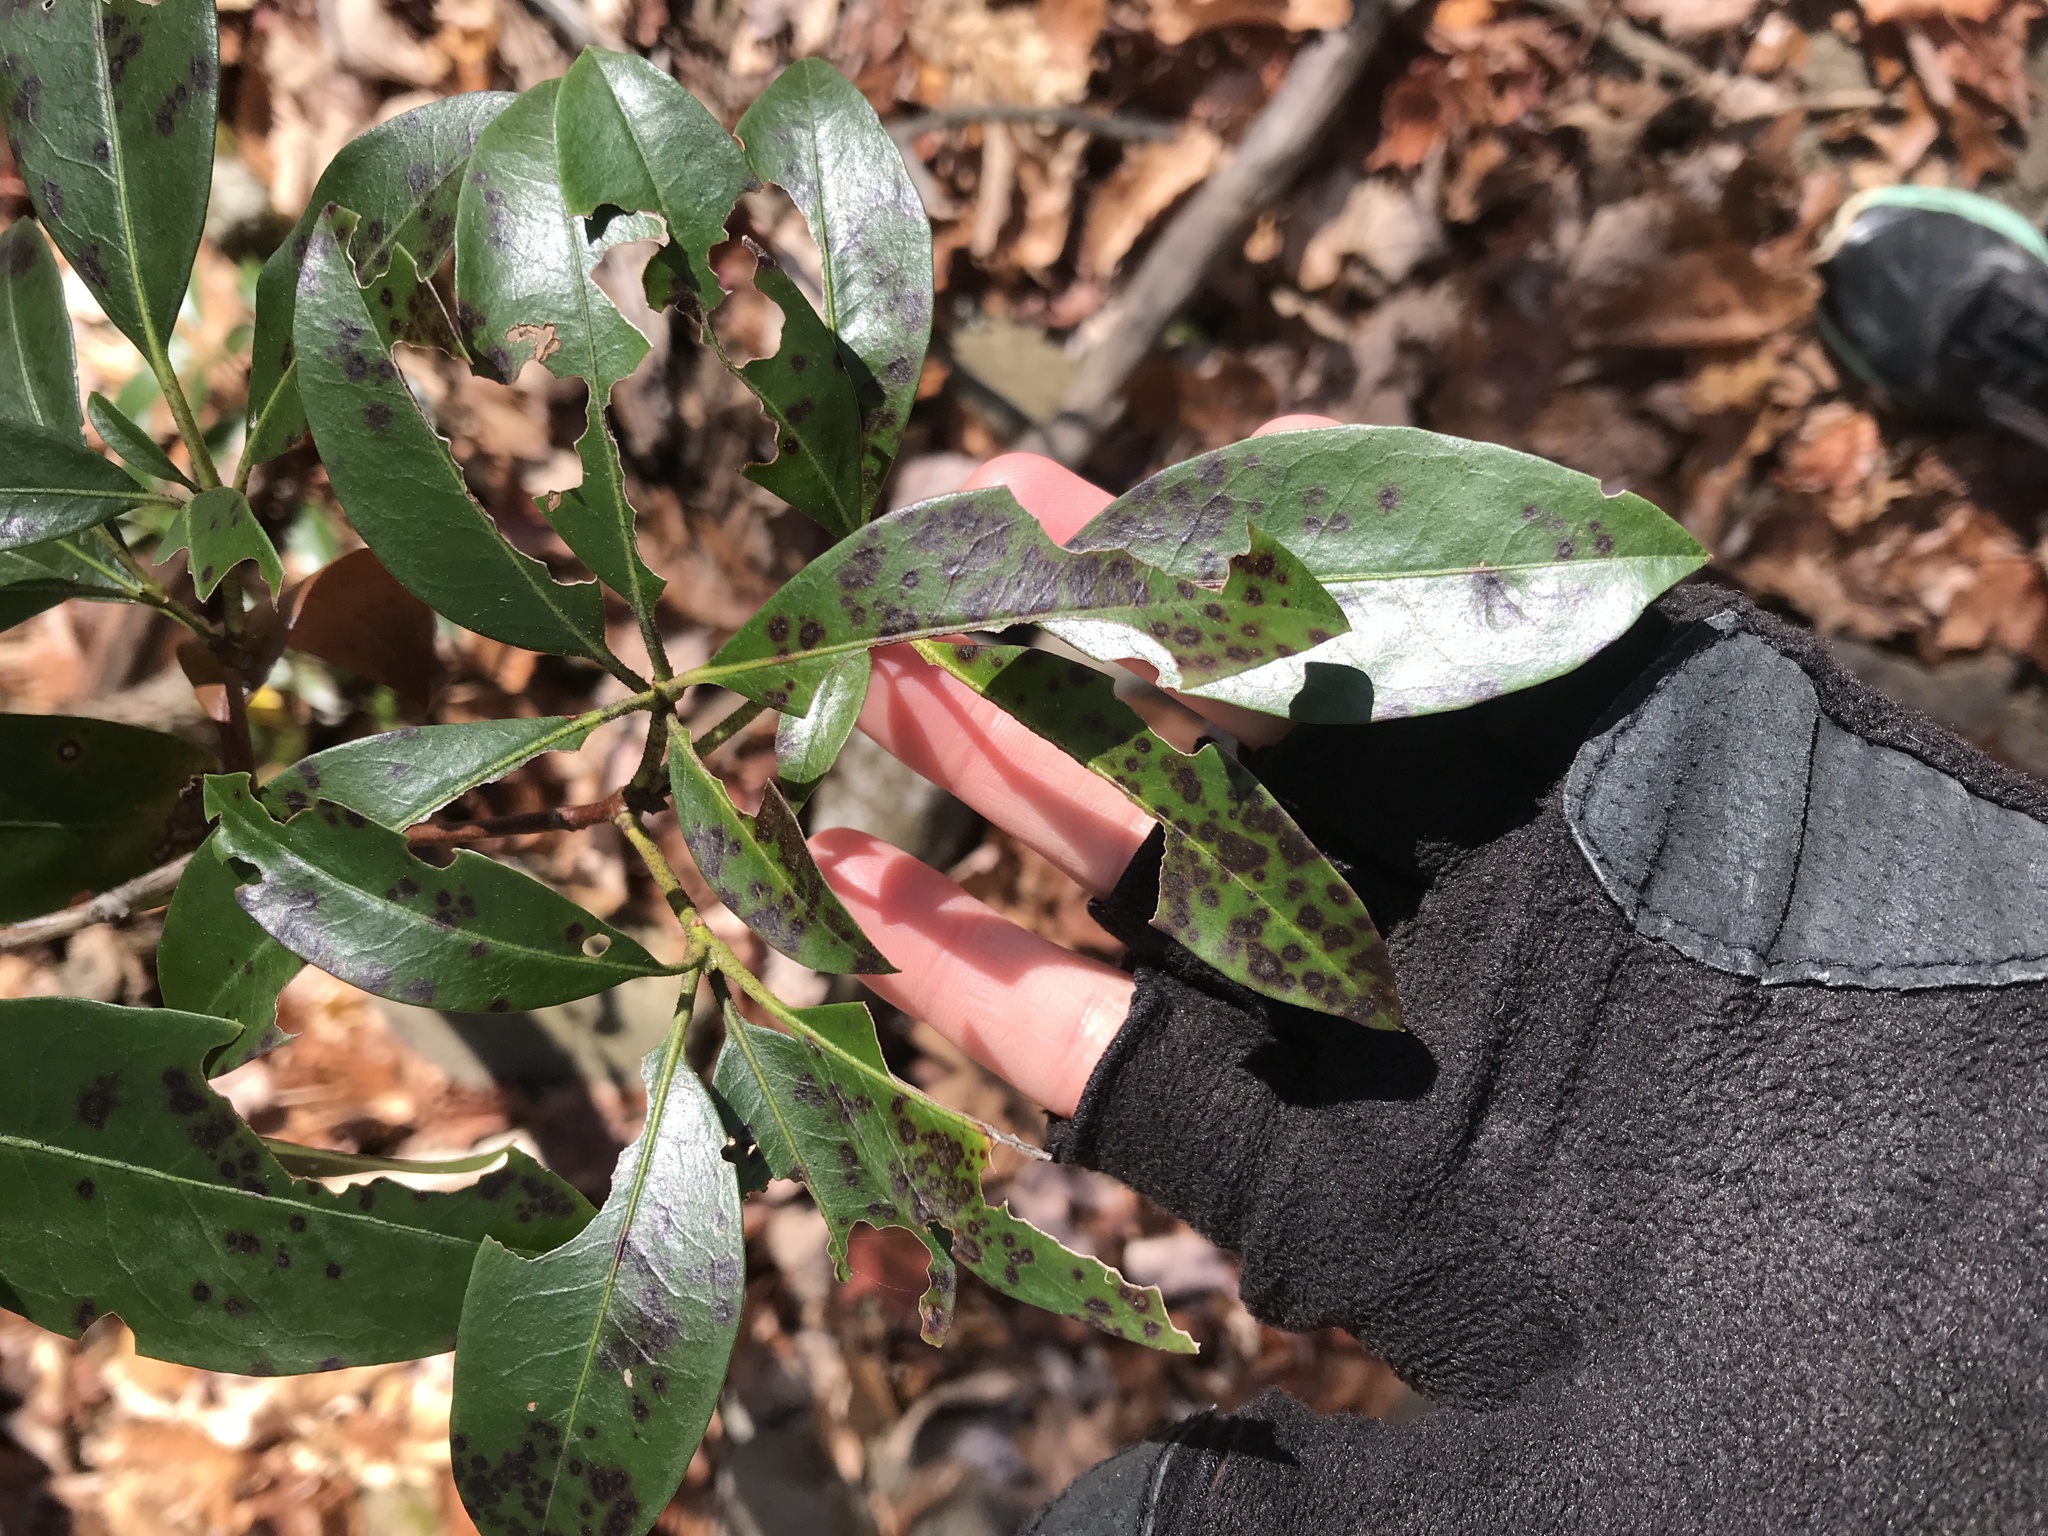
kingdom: Plantae
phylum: Tracheophyta
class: Magnoliopsida
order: Ericales
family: Ericaceae
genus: Kalmia
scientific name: Kalmia latifolia
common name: Mountain-laurel
